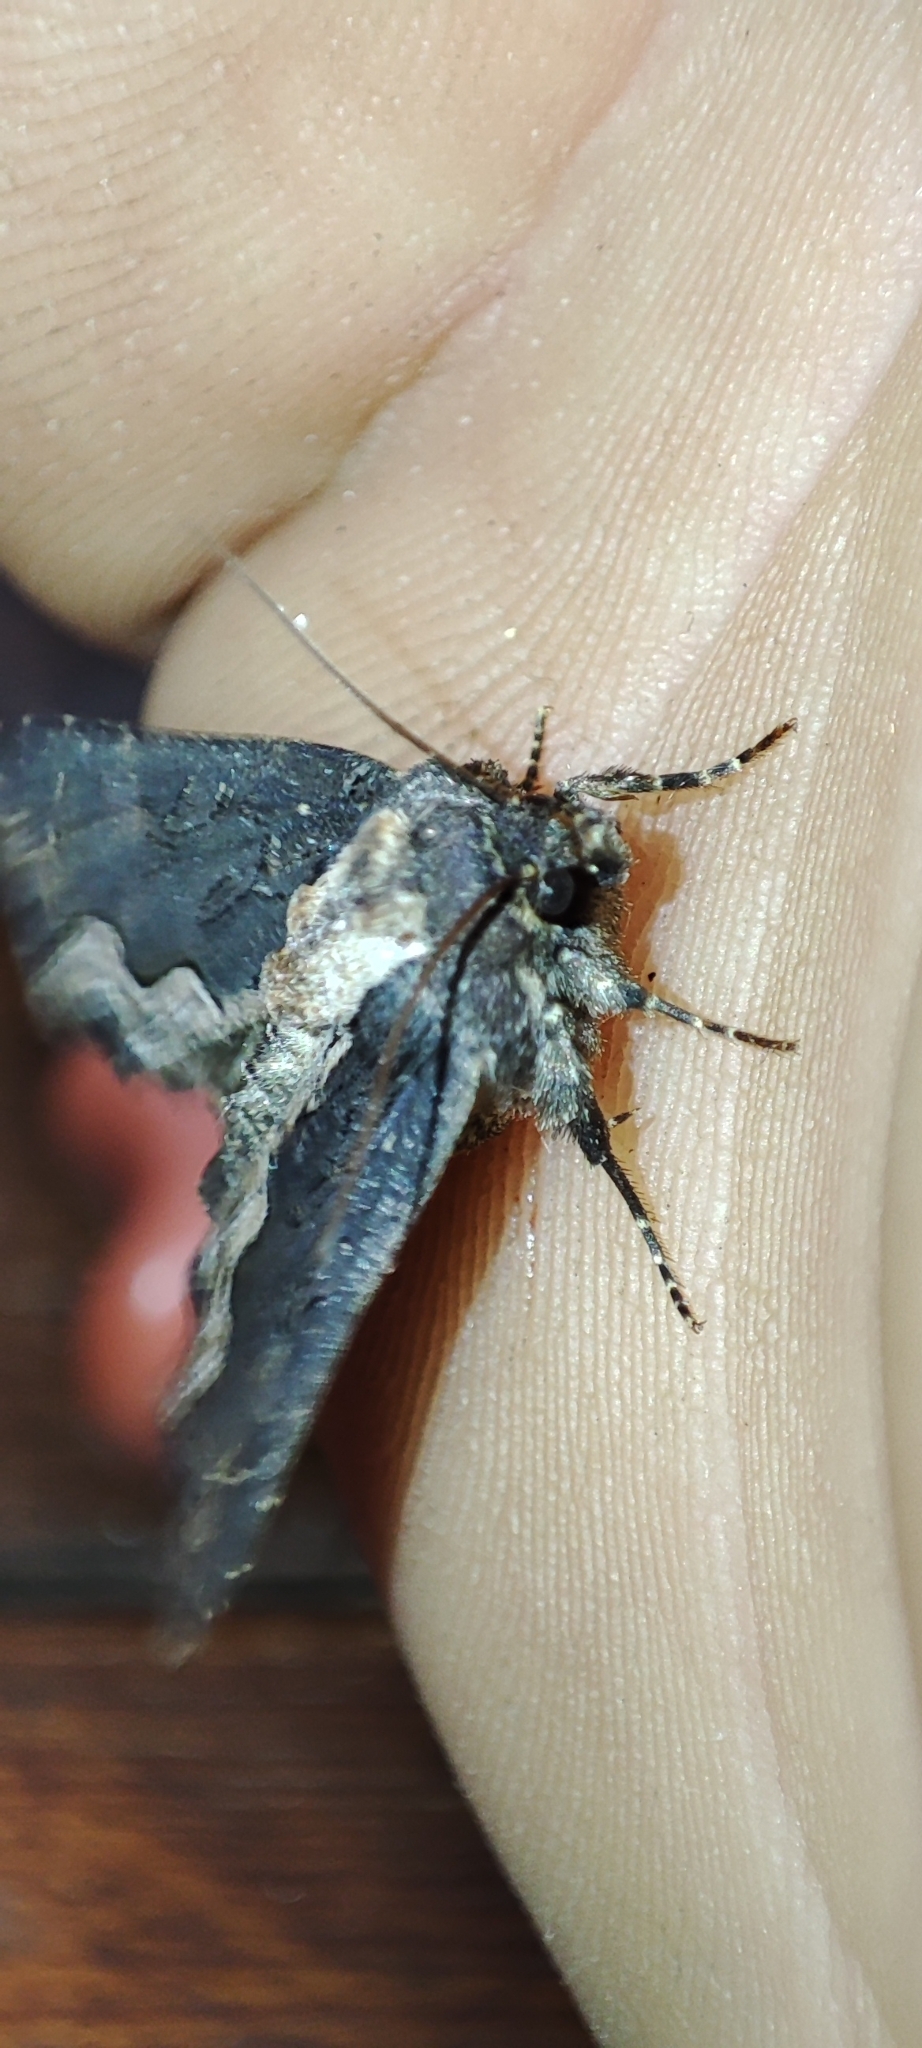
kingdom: Animalia
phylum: Arthropoda
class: Insecta
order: Lepidoptera
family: Noctuidae
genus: Dypterygia
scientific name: Dypterygia scabriuscula
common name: Bird's wing
